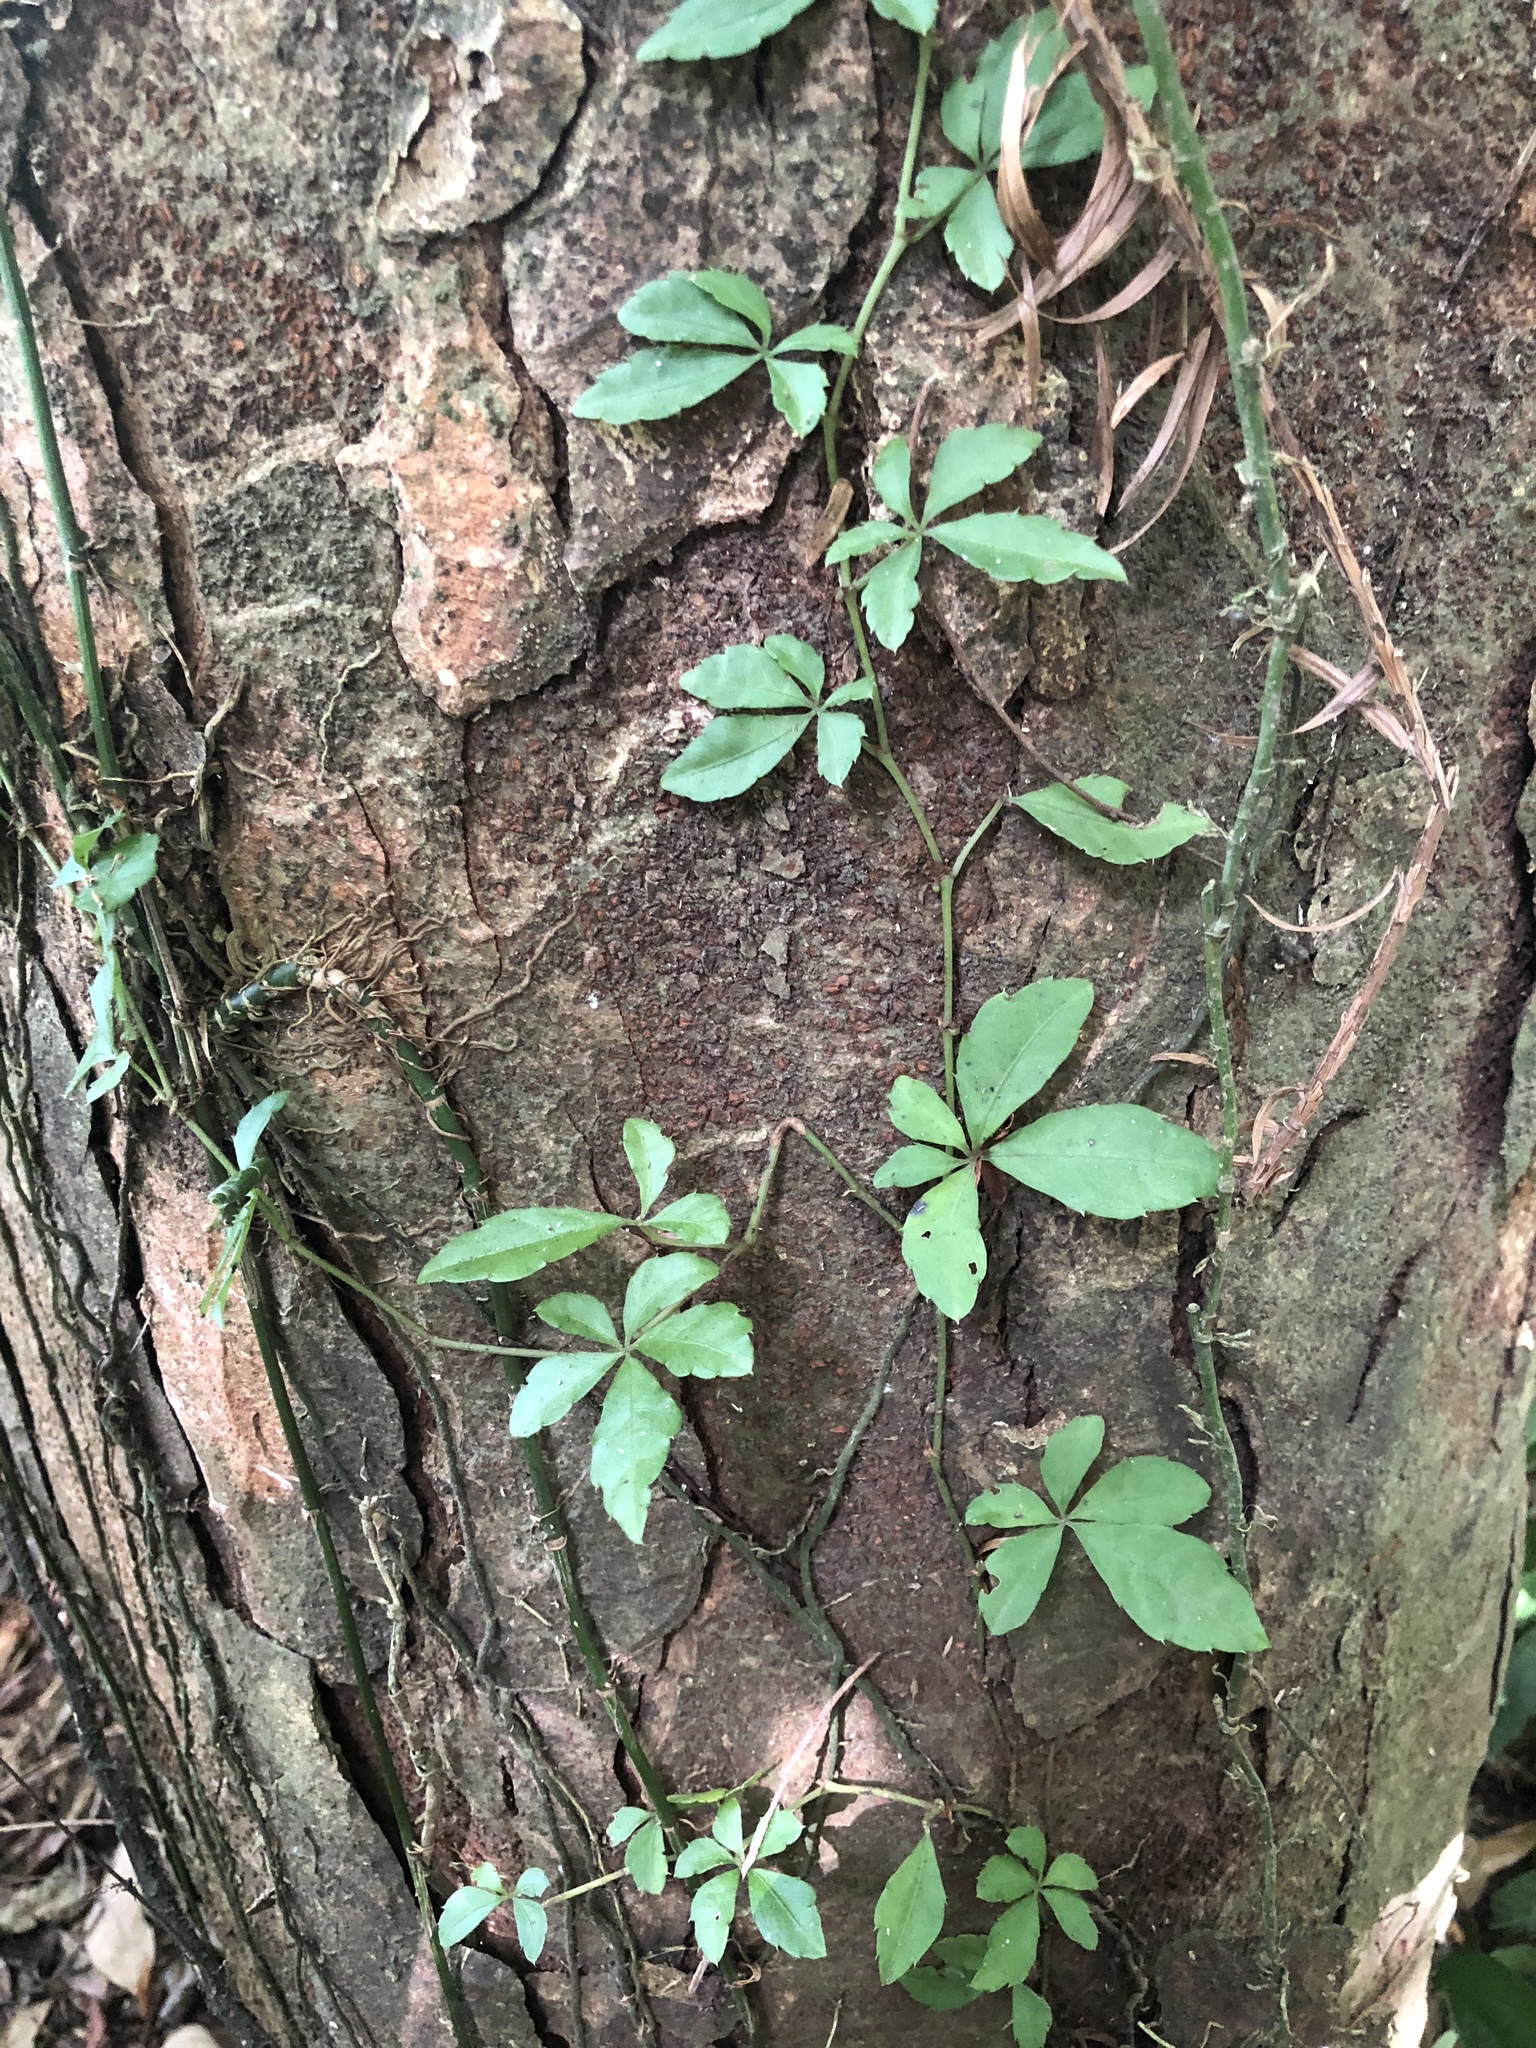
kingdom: Plantae
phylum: Tracheophyta
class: Magnoliopsida
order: Vitales
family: Vitaceae
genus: Tetrastigma
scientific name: Tetrastigma obtectum
